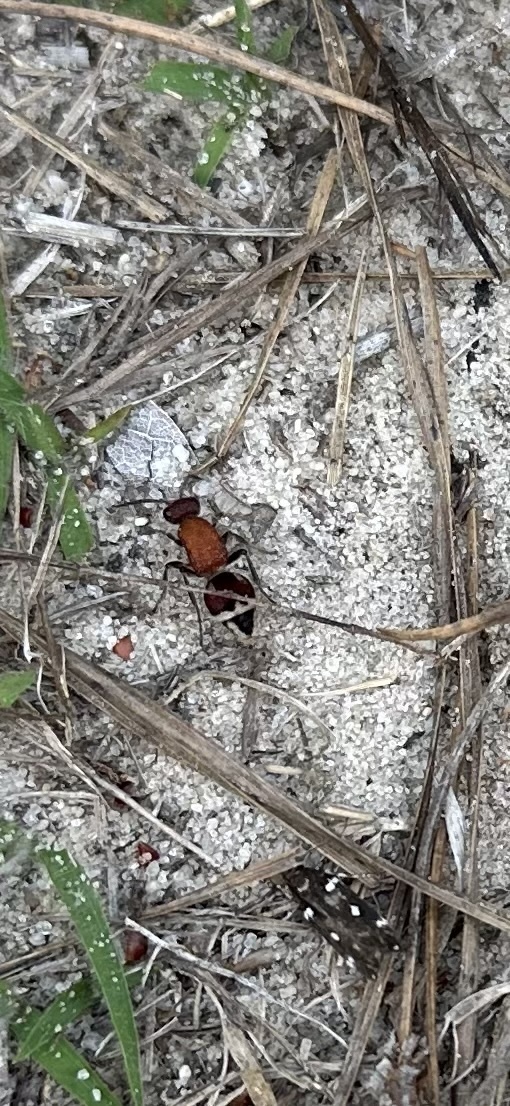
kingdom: Animalia
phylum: Arthropoda
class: Insecta
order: Hymenoptera
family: Mutillidae
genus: Timulla
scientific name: Timulla
